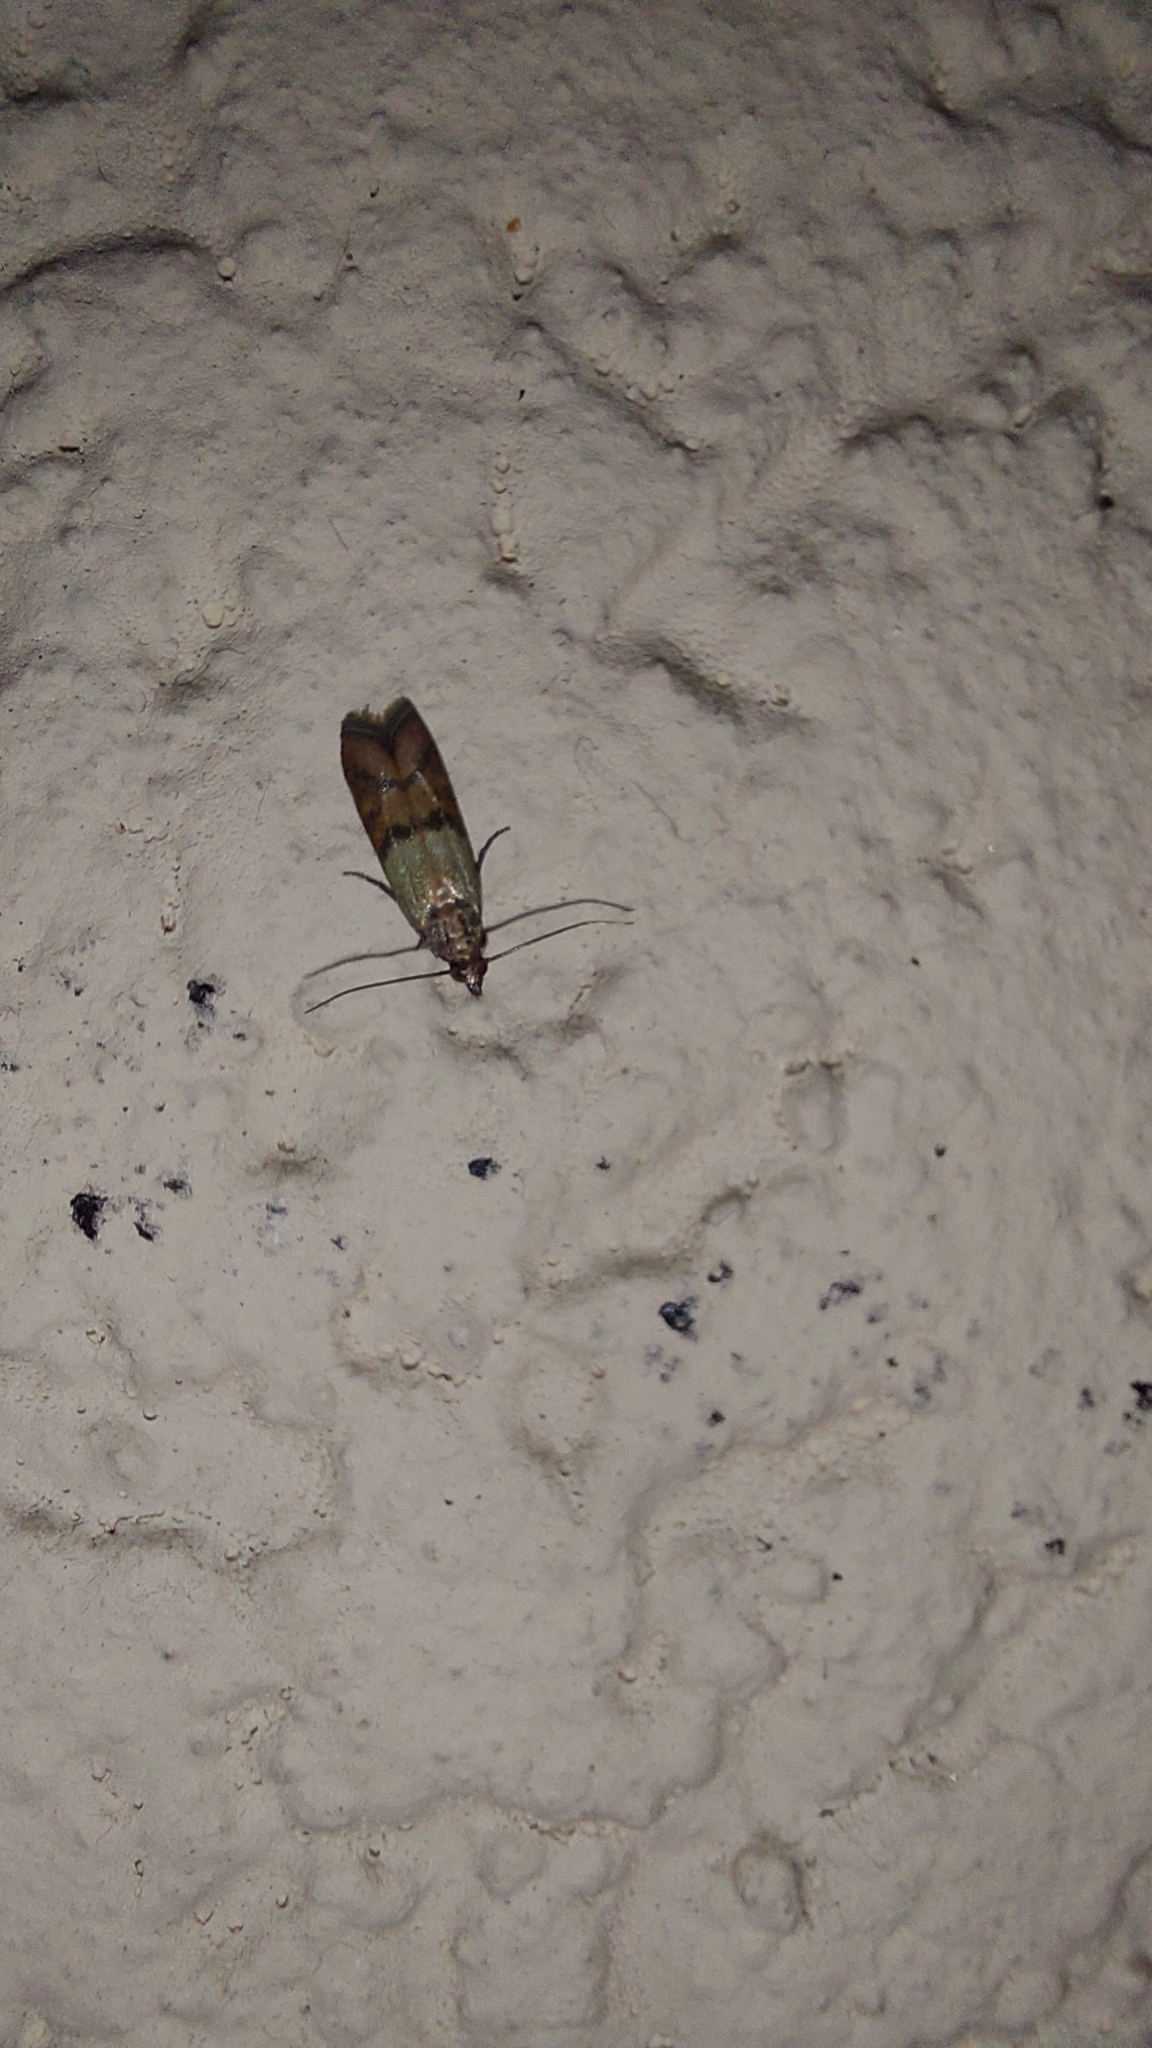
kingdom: Animalia
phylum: Arthropoda
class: Insecta
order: Lepidoptera
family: Pyralidae
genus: Plodia
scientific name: Plodia interpunctella
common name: Indian meal moth
